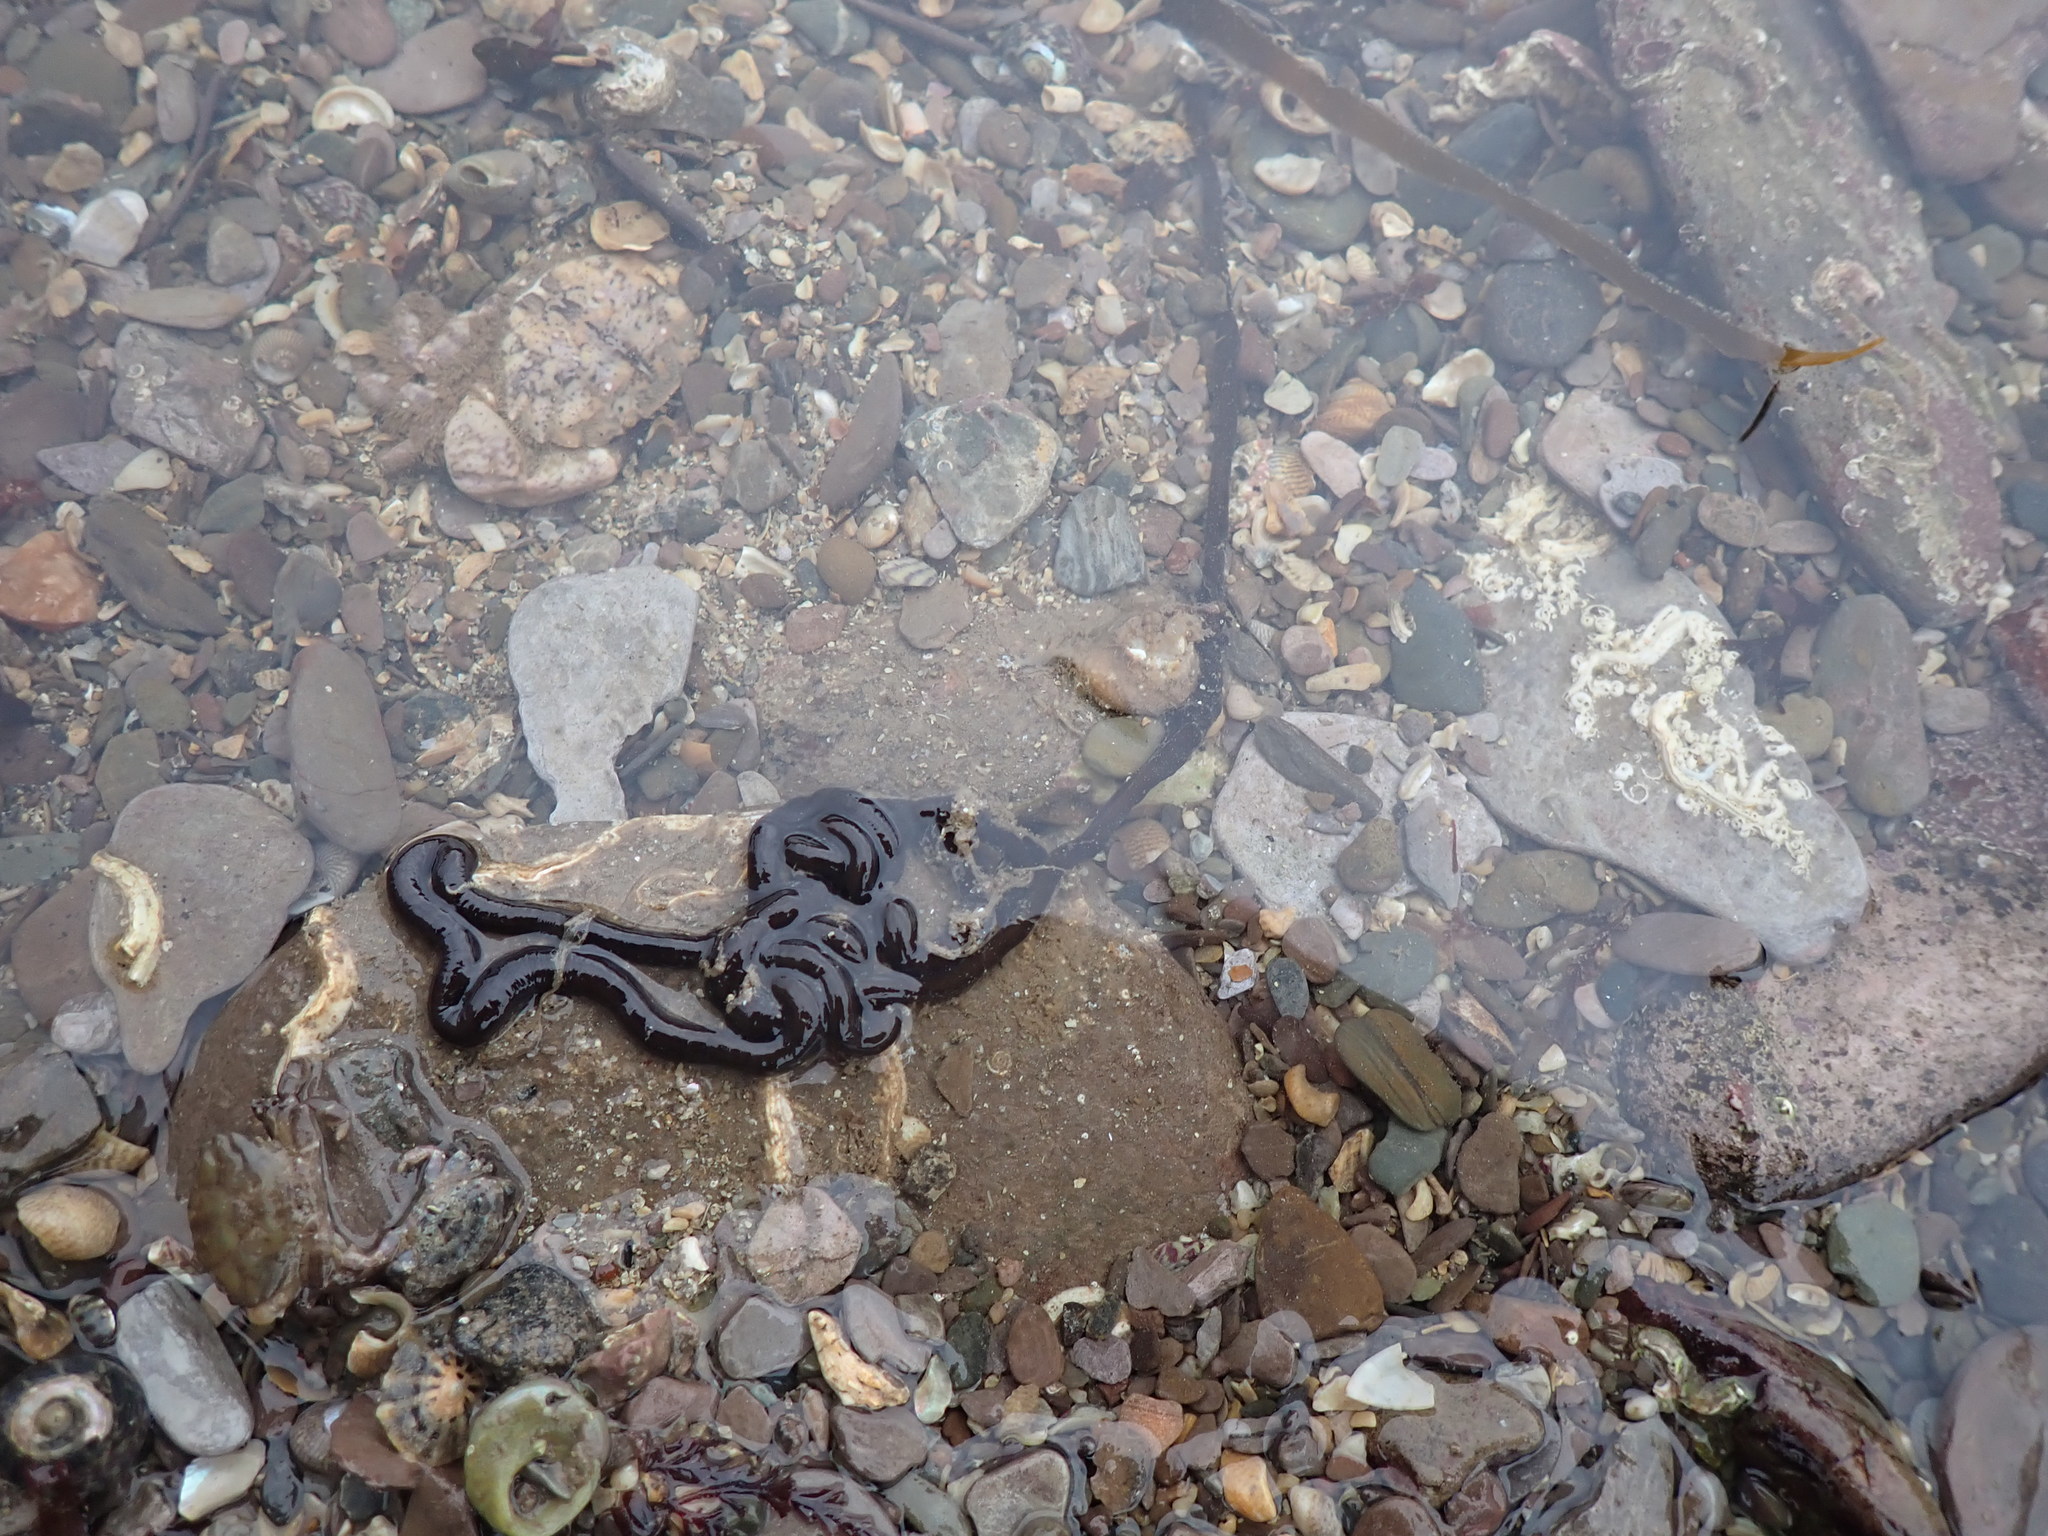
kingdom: Animalia
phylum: Nemertea
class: Pilidiophora
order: Heteronemertea
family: Lineidae
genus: Lineus
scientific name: Lineus longissimus
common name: Bootlace worm
